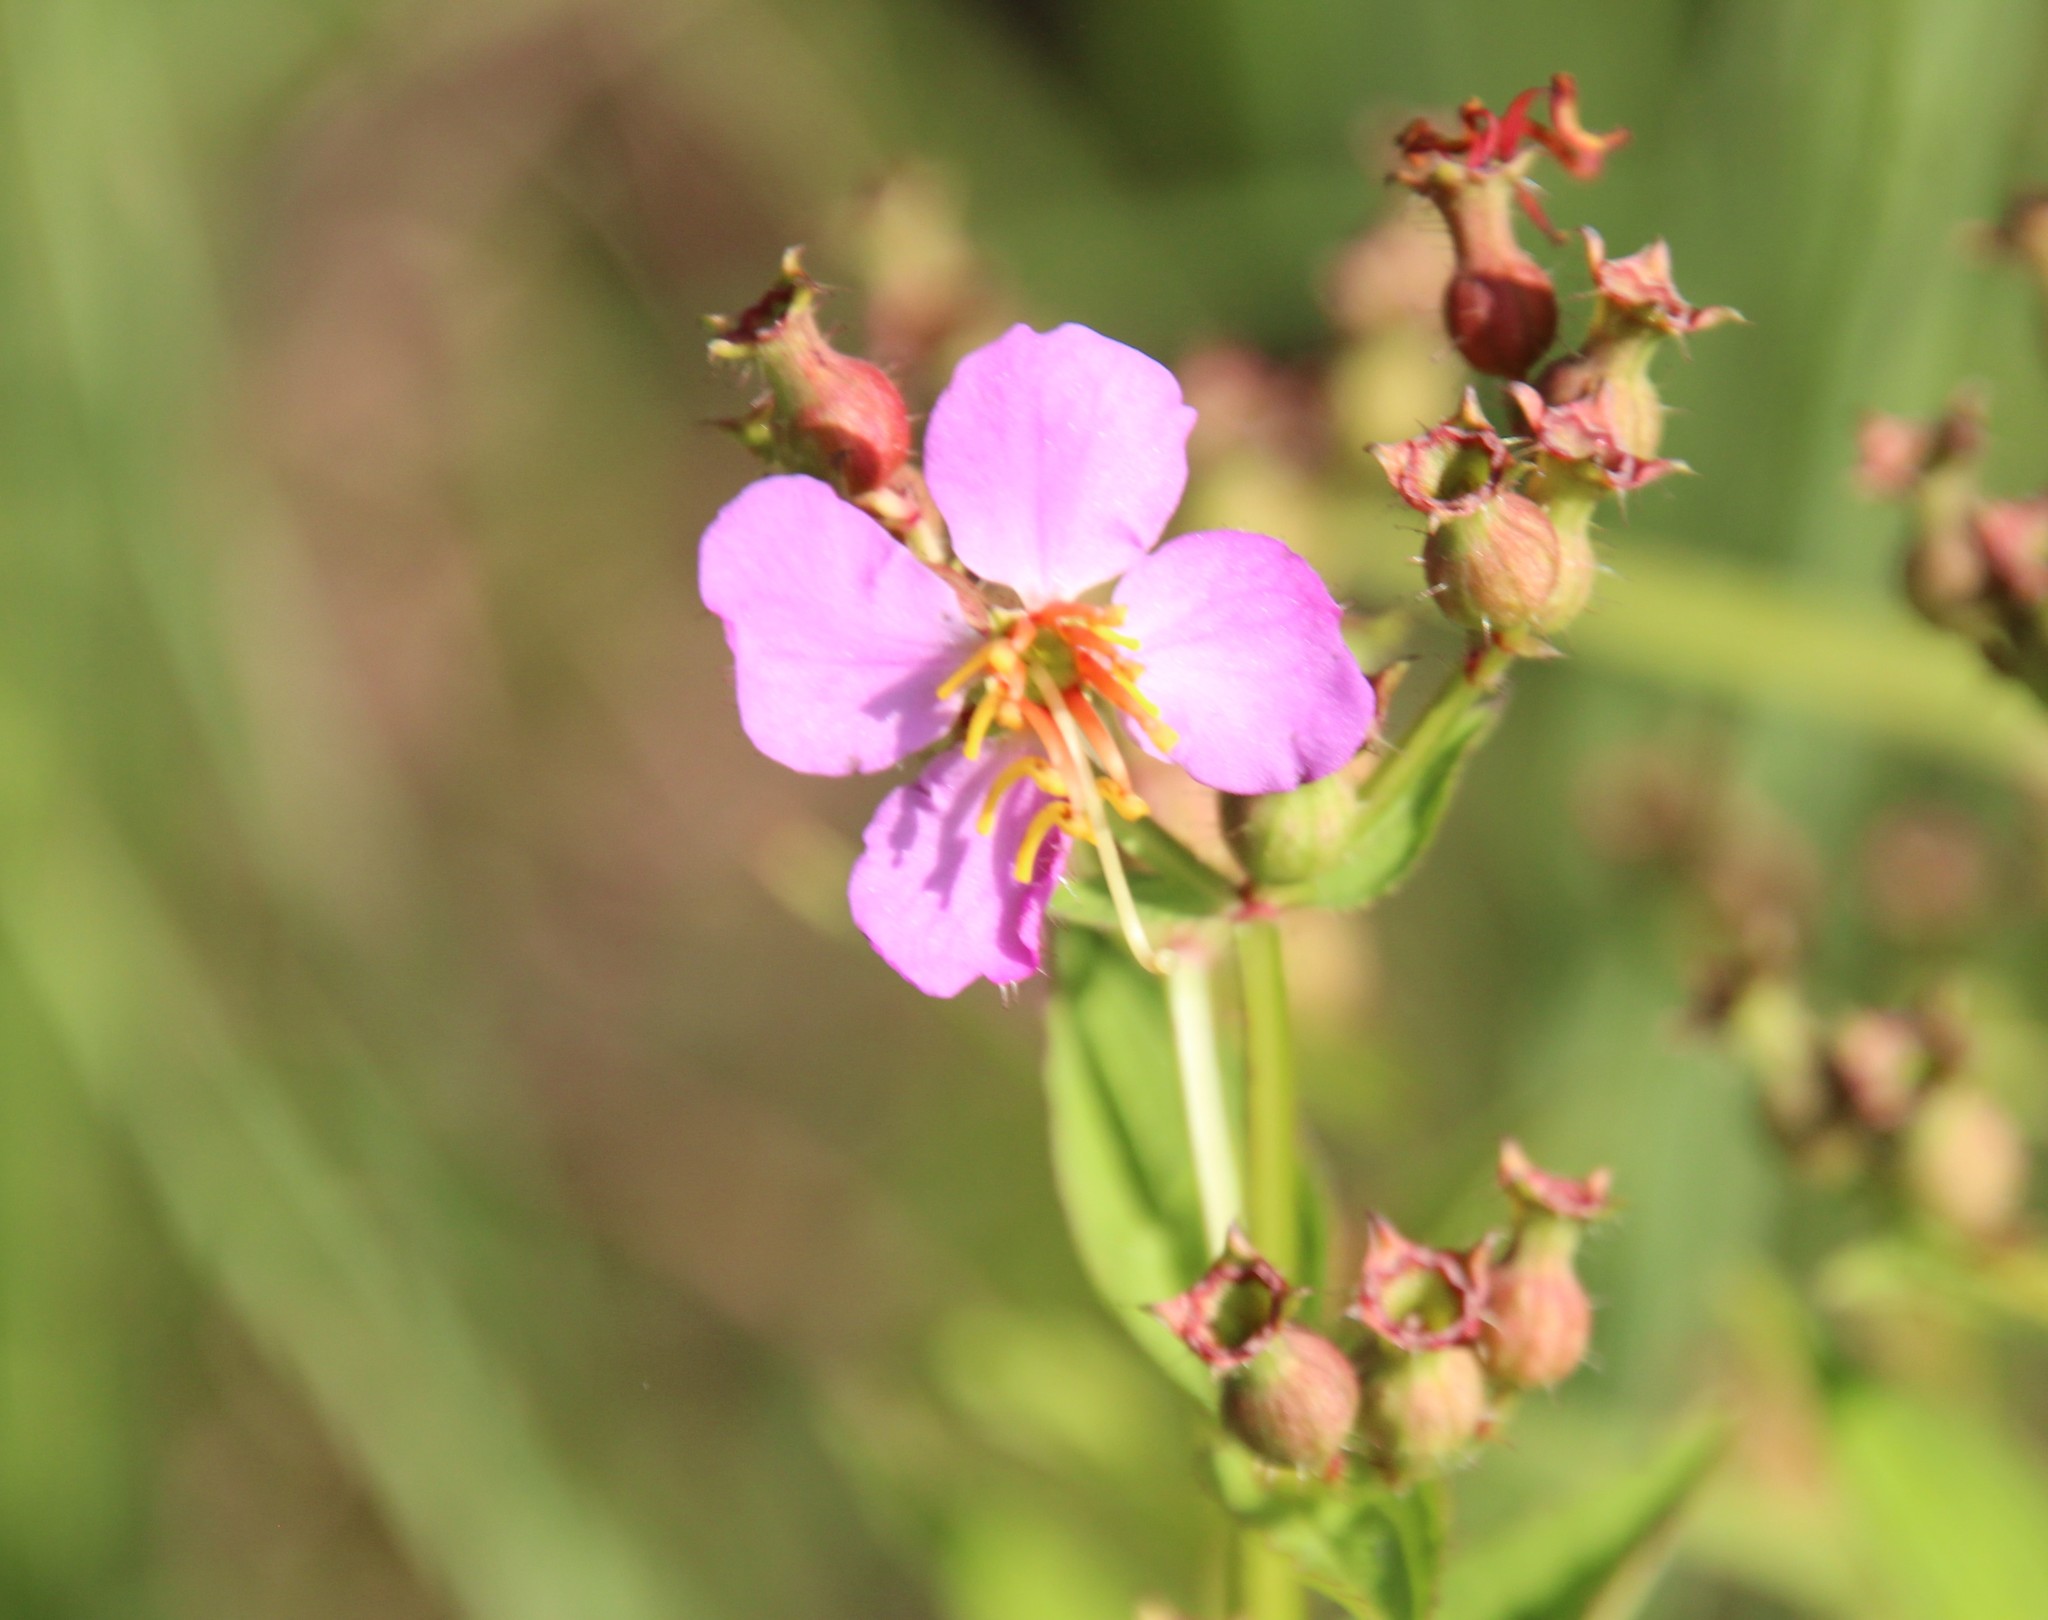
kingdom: Plantae
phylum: Tracheophyta
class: Magnoliopsida
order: Myrtales
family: Melastomataceae
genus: Rhexia
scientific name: Rhexia virginica
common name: Common meadow beauty
